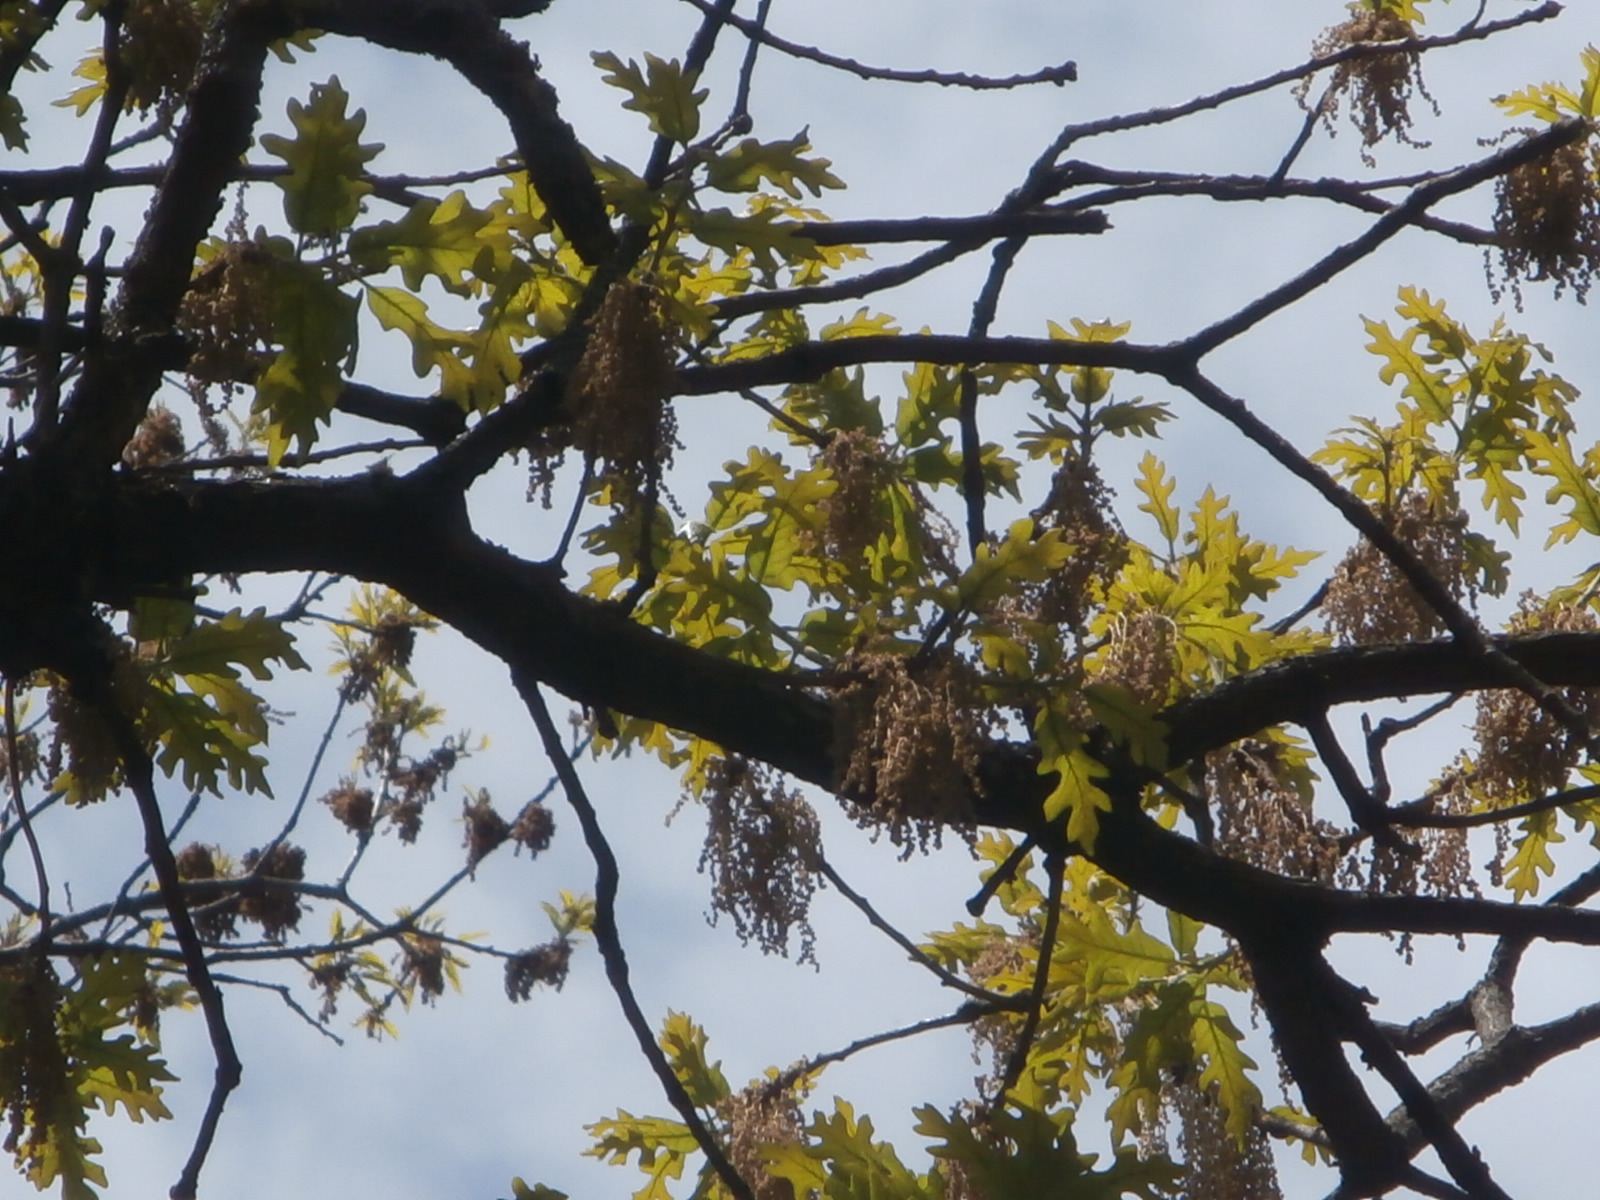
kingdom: Plantae
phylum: Tracheophyta
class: Magnoliopsida
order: Fagales
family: Fagaceae
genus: Quercus
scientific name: Quercus stellata
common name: Post oak
